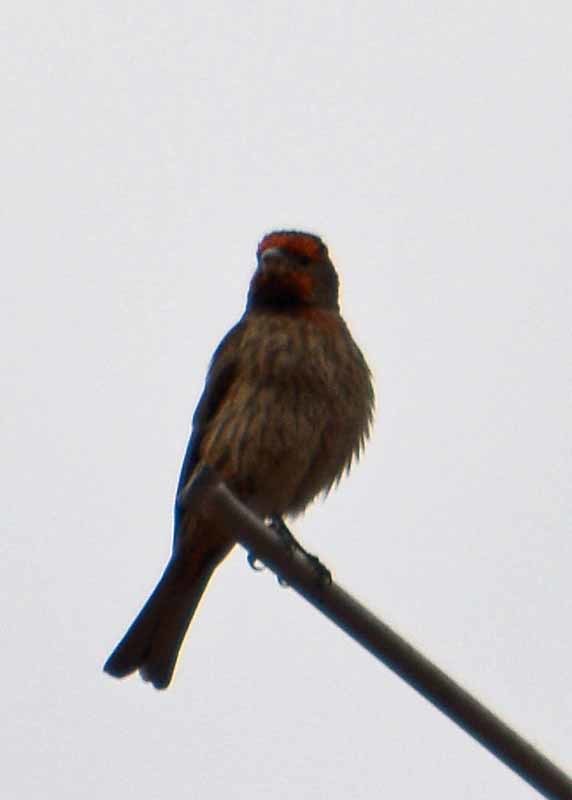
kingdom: Animalia
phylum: Chordata
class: Aves
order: Passeriformes
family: Fringillidae
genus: Haemorhous
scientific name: Haemorhous mexicanus
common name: House finch
